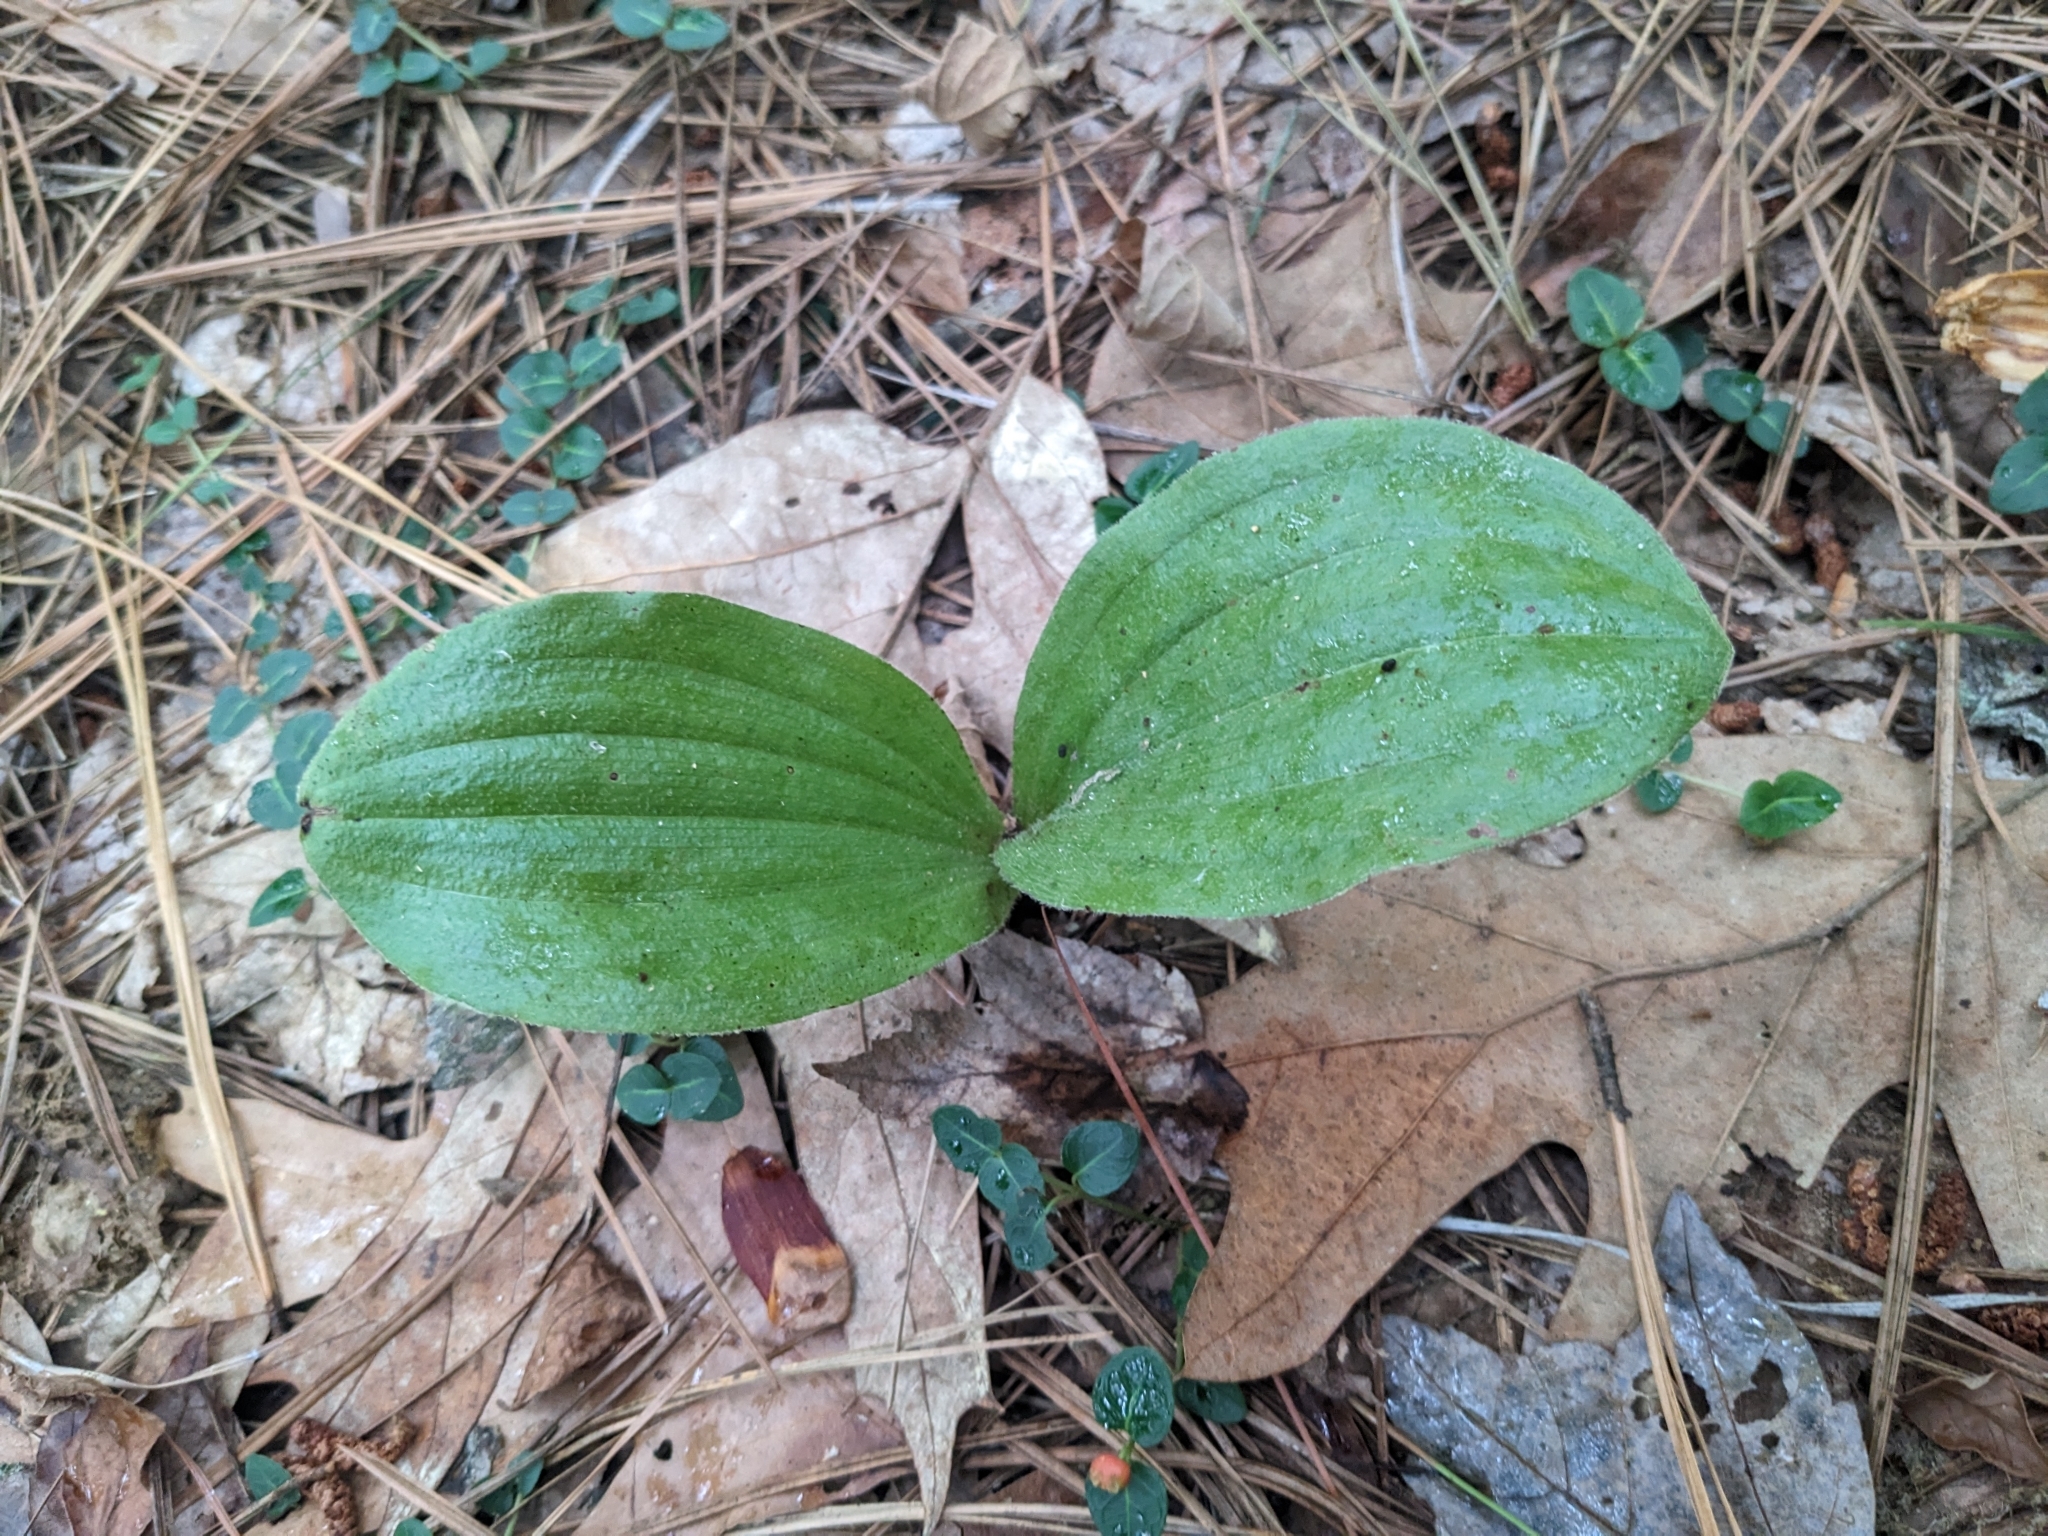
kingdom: Plantae
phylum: Tracheophyta
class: Liliopsida
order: Asparagales
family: Orchidaceae
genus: Cypripedium
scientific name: Cypripedium acaule
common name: Pink lady's-slipper
